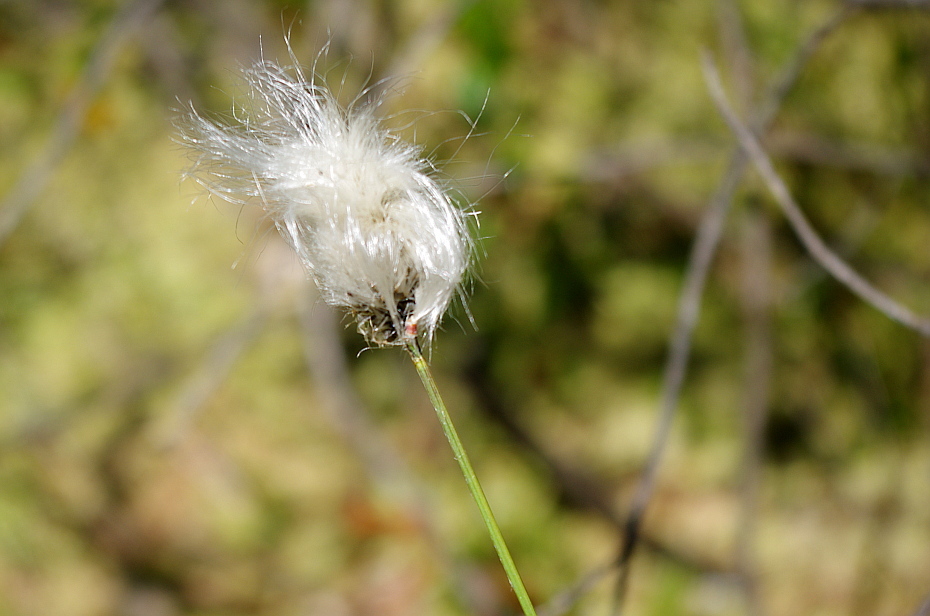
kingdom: Plantae
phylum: Tracheophyta
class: Liliopsida
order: Poales
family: Cyperaceae
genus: Eriophorum
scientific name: Eriophorum vaginatum
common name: Hare's-tail cottongrass
